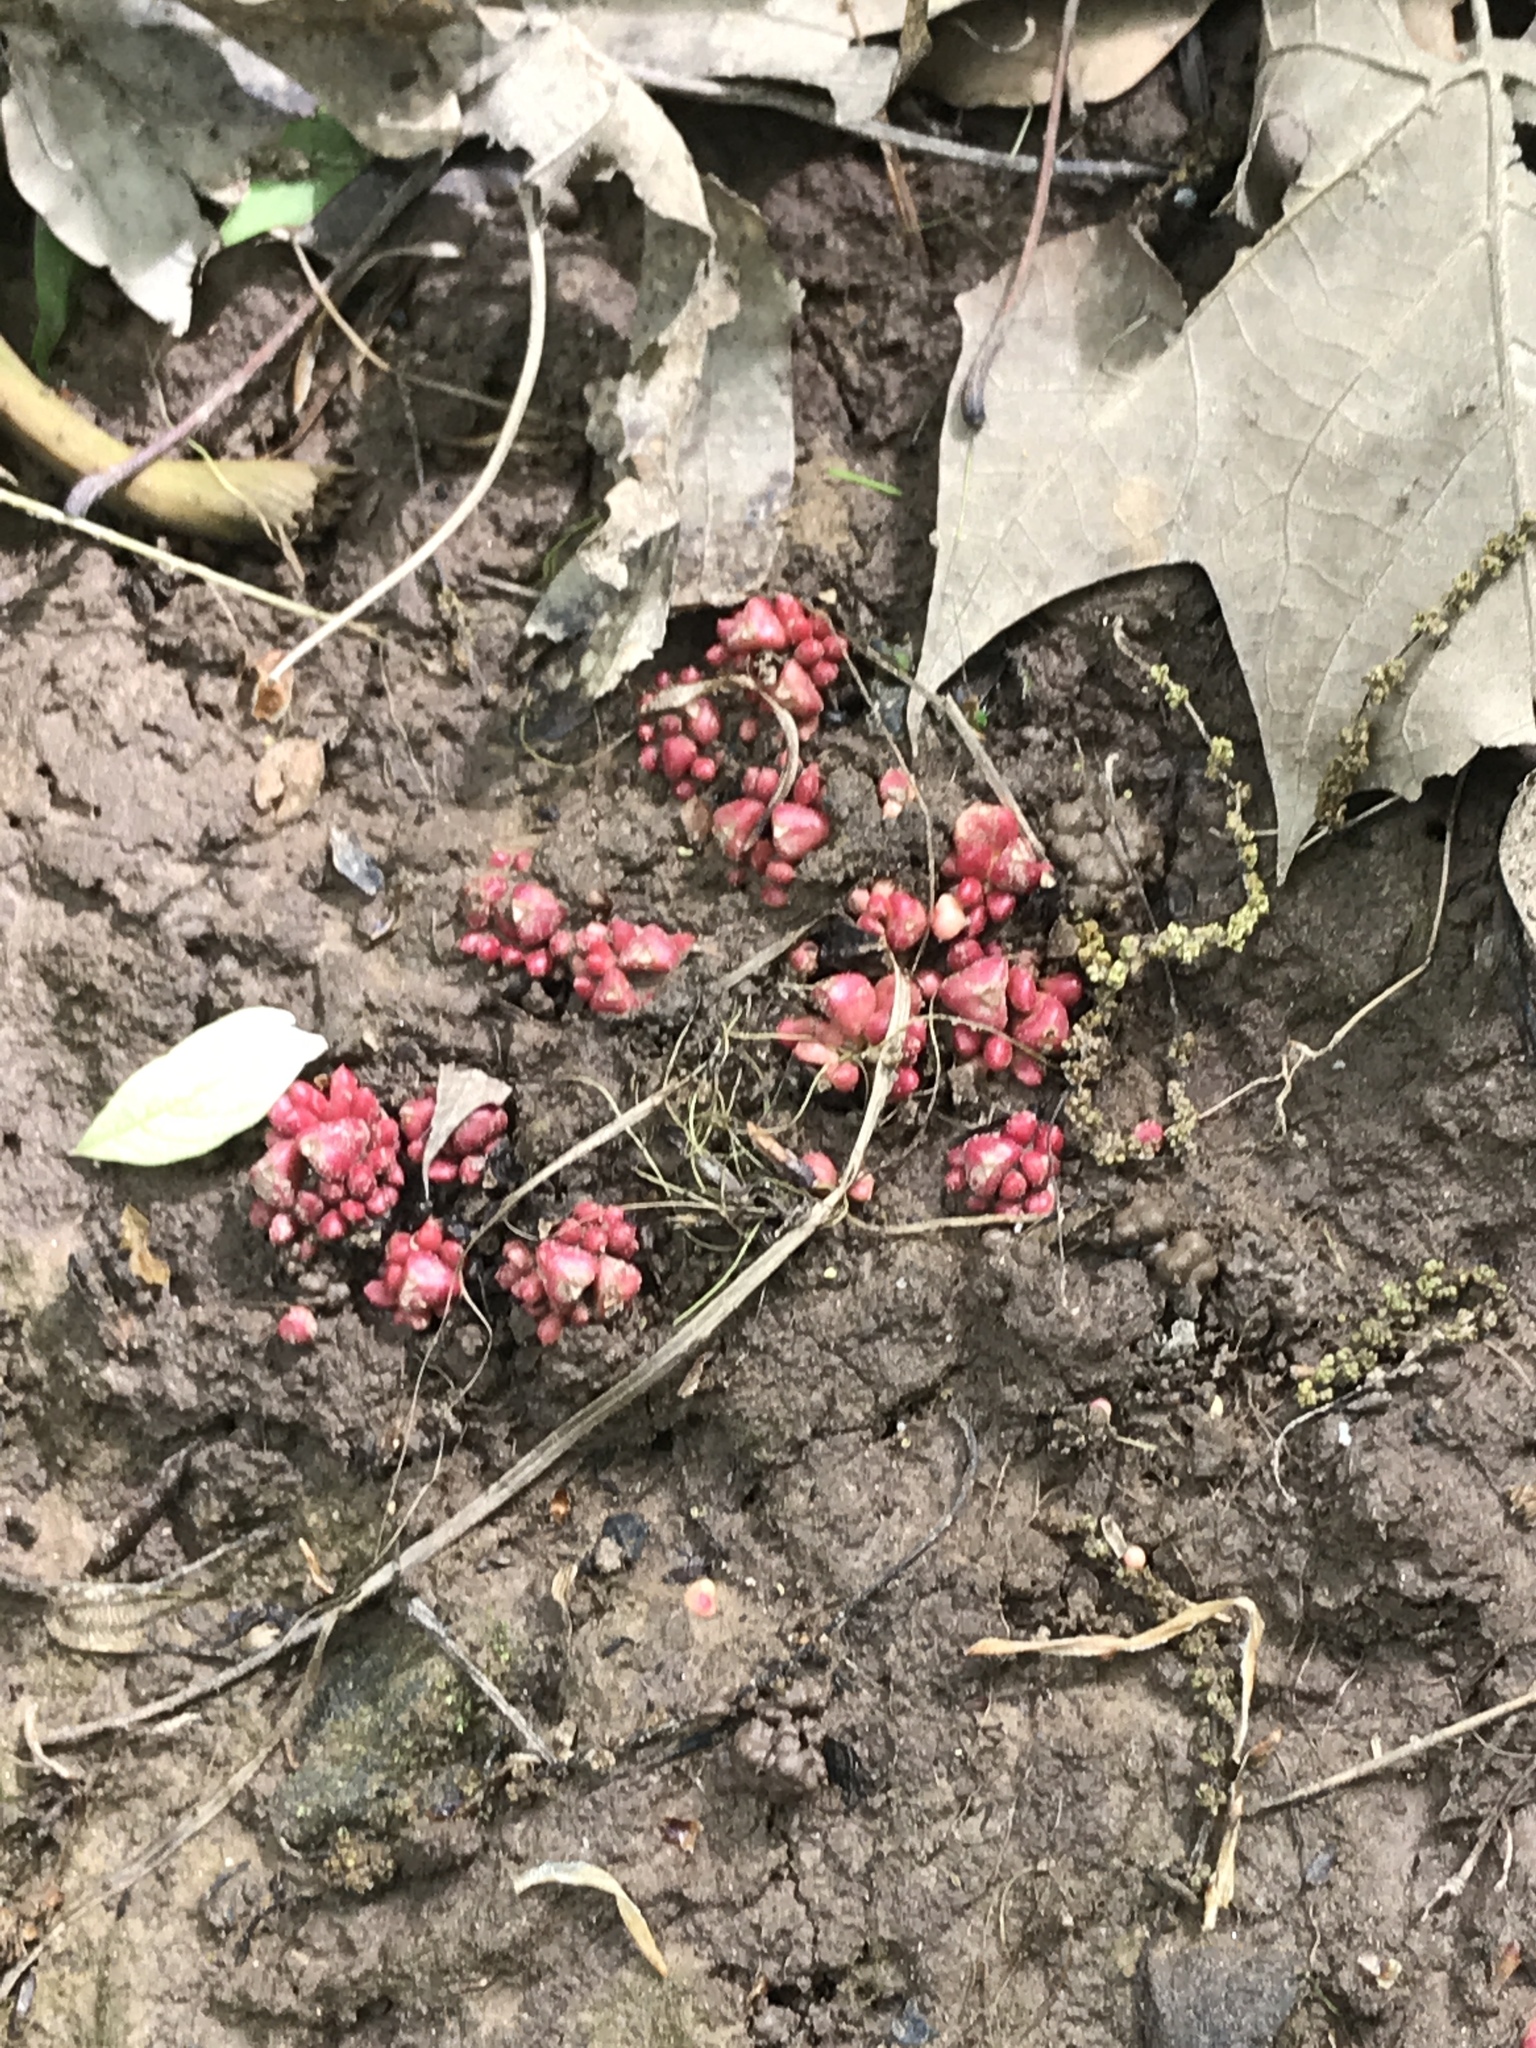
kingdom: Plantae
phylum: Tracheophyta
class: Magnoliopsida
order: Ranunculales
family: Papaveraceae
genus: Dicentra
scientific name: Dicentra cucullaria
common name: Dutchman's breeches
